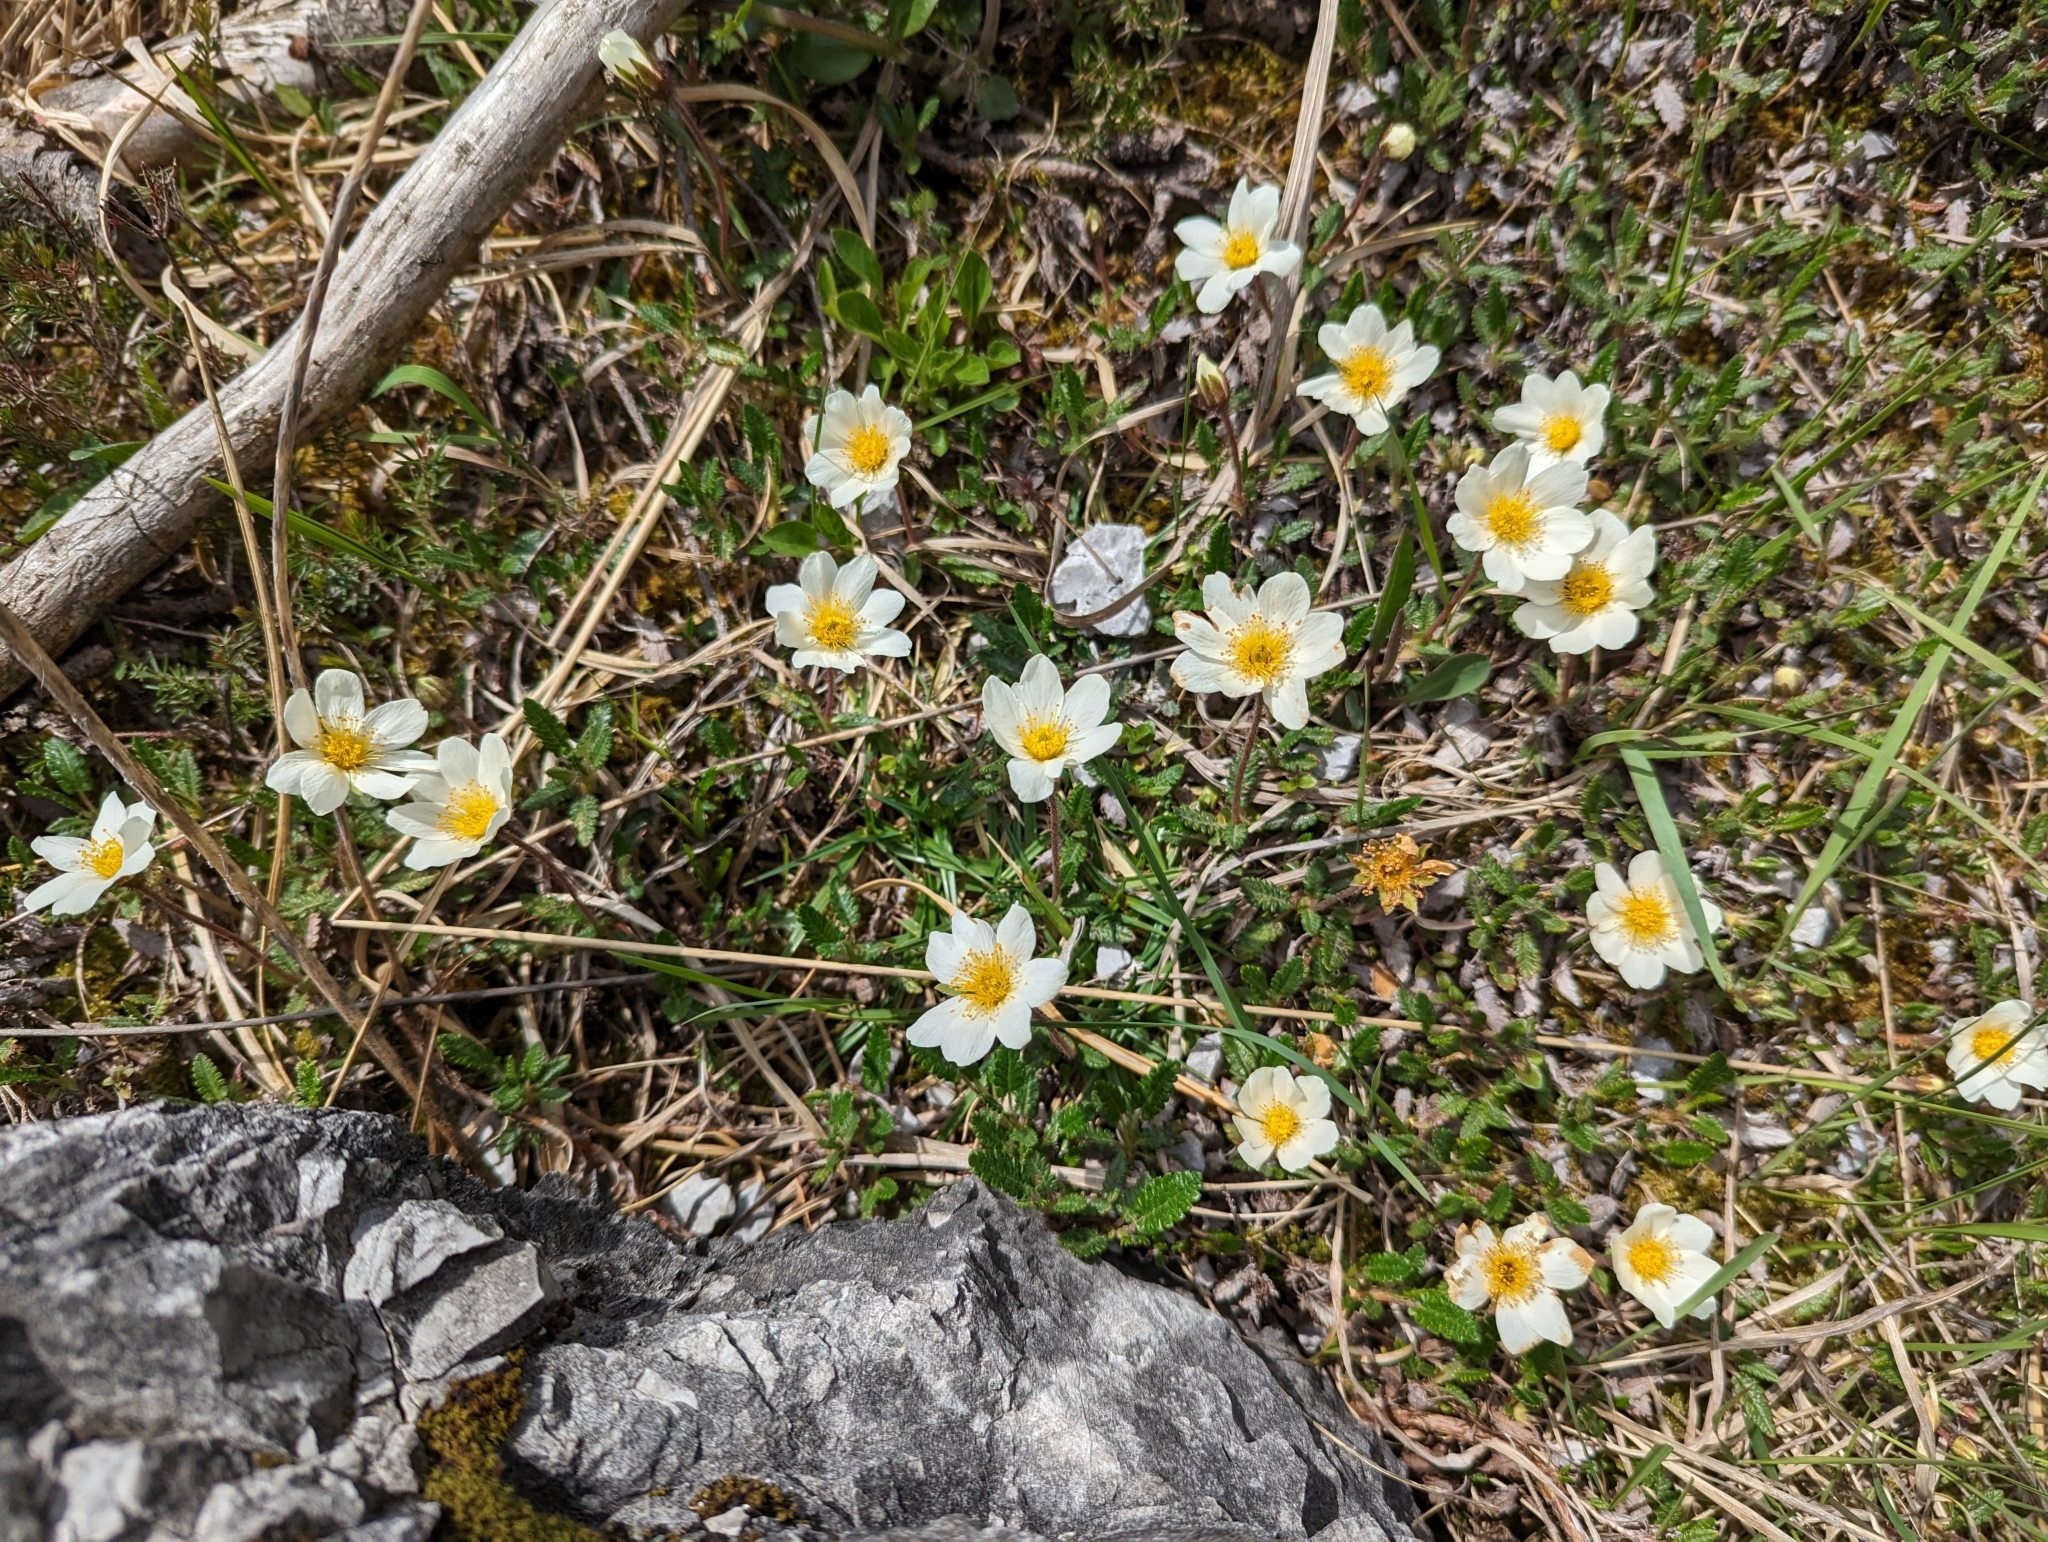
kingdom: Plantae
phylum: Tracheophyta
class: Magnoliopsida
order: Rosales
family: Rosaceae
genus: Dryas
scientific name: Dryas octopetala
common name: Eight-petal mountain-avens
